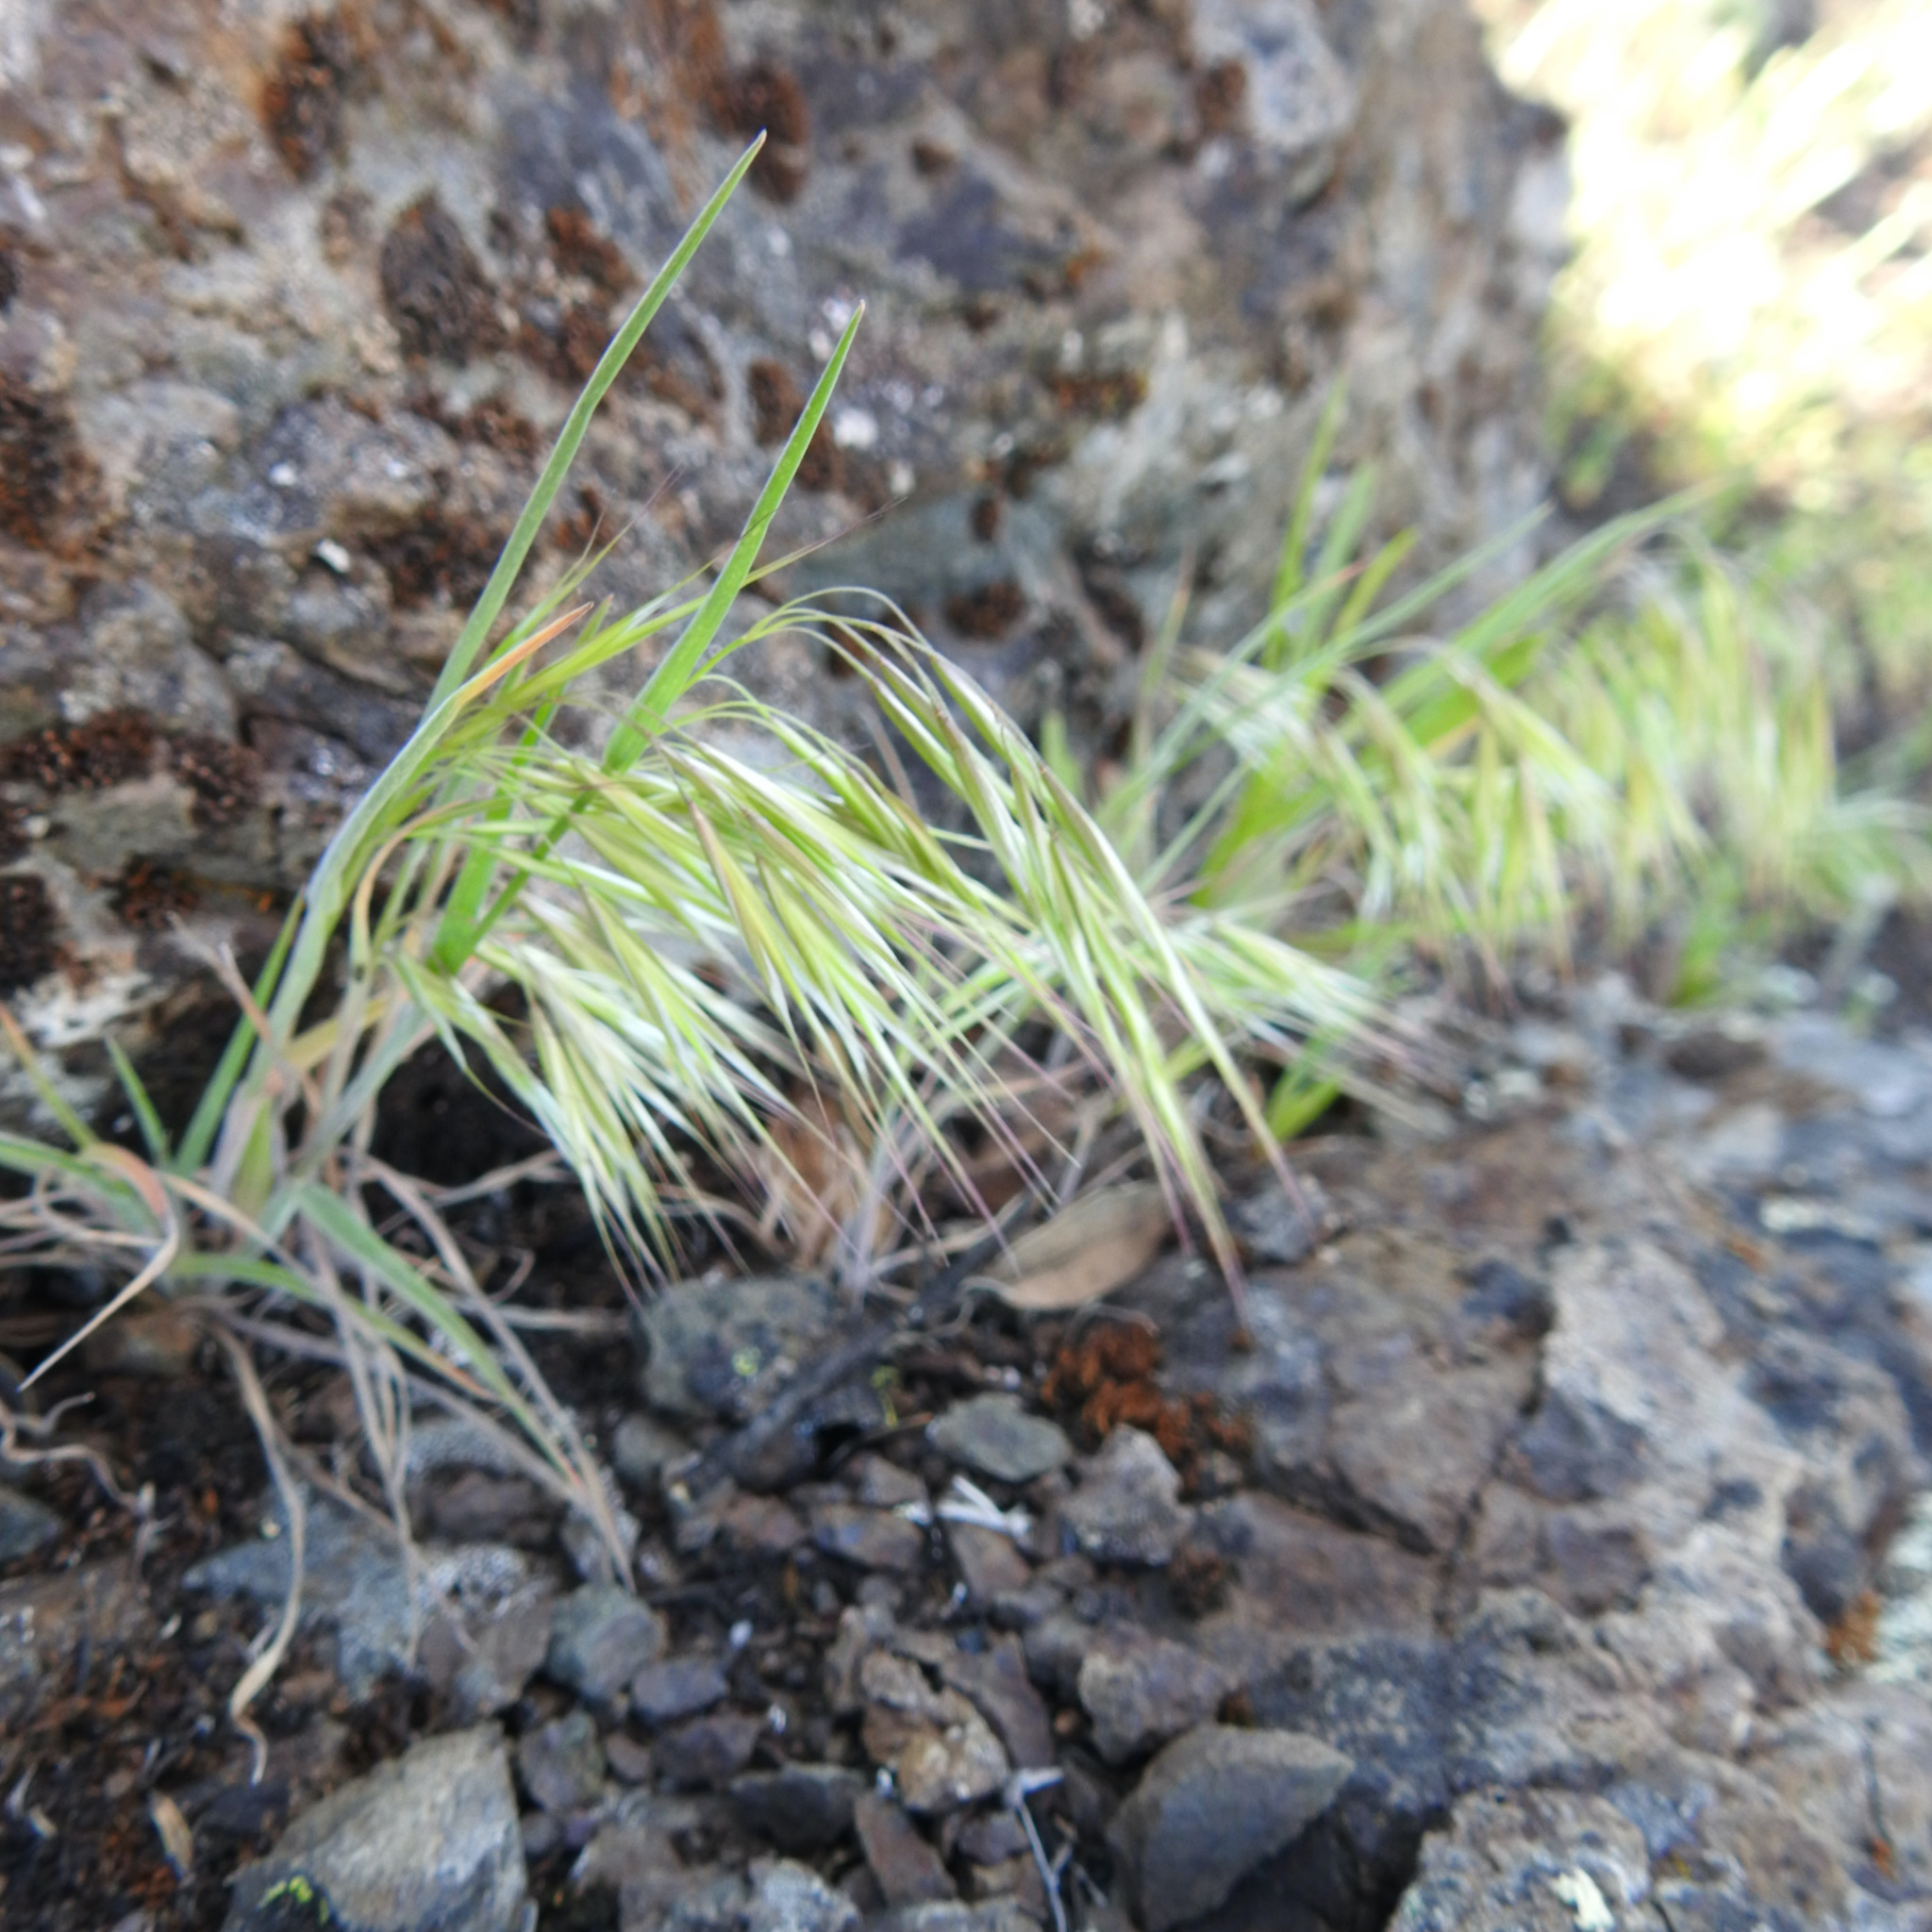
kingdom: Plantae
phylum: Tracheophyta
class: Liliopsida
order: Poales
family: Poaceae
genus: Bromus
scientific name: Bromus tectorum
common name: Cheatgrass
